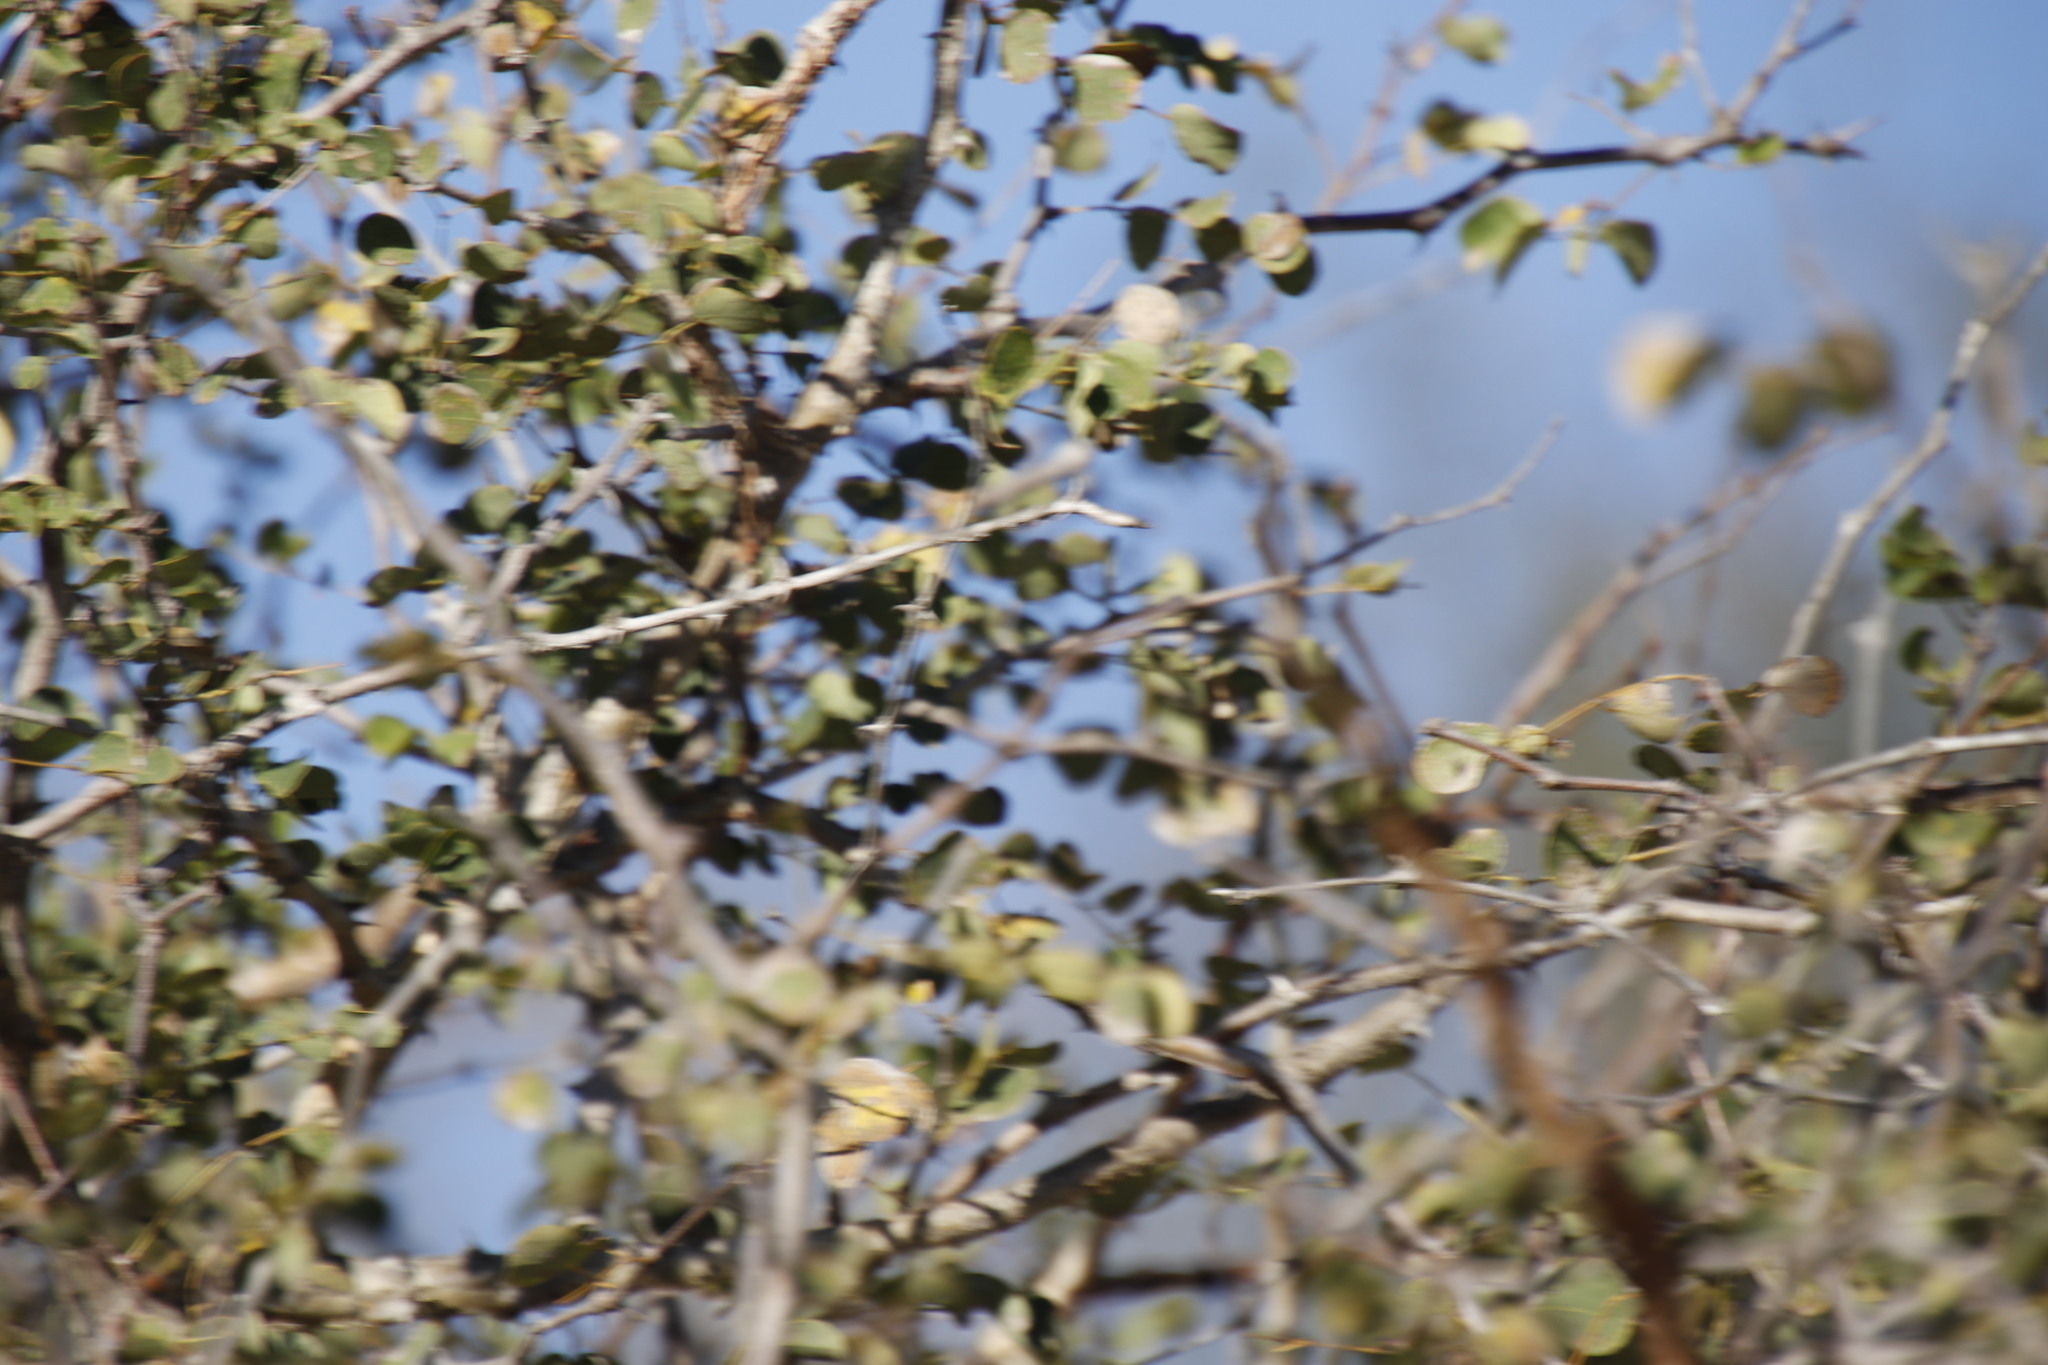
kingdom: Plantae
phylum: Tracheophyta
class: Magnoliopsida
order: Fabales
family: Fabaceae
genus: Senegalia
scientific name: Senegalia nigrescens
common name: Knobthorn
